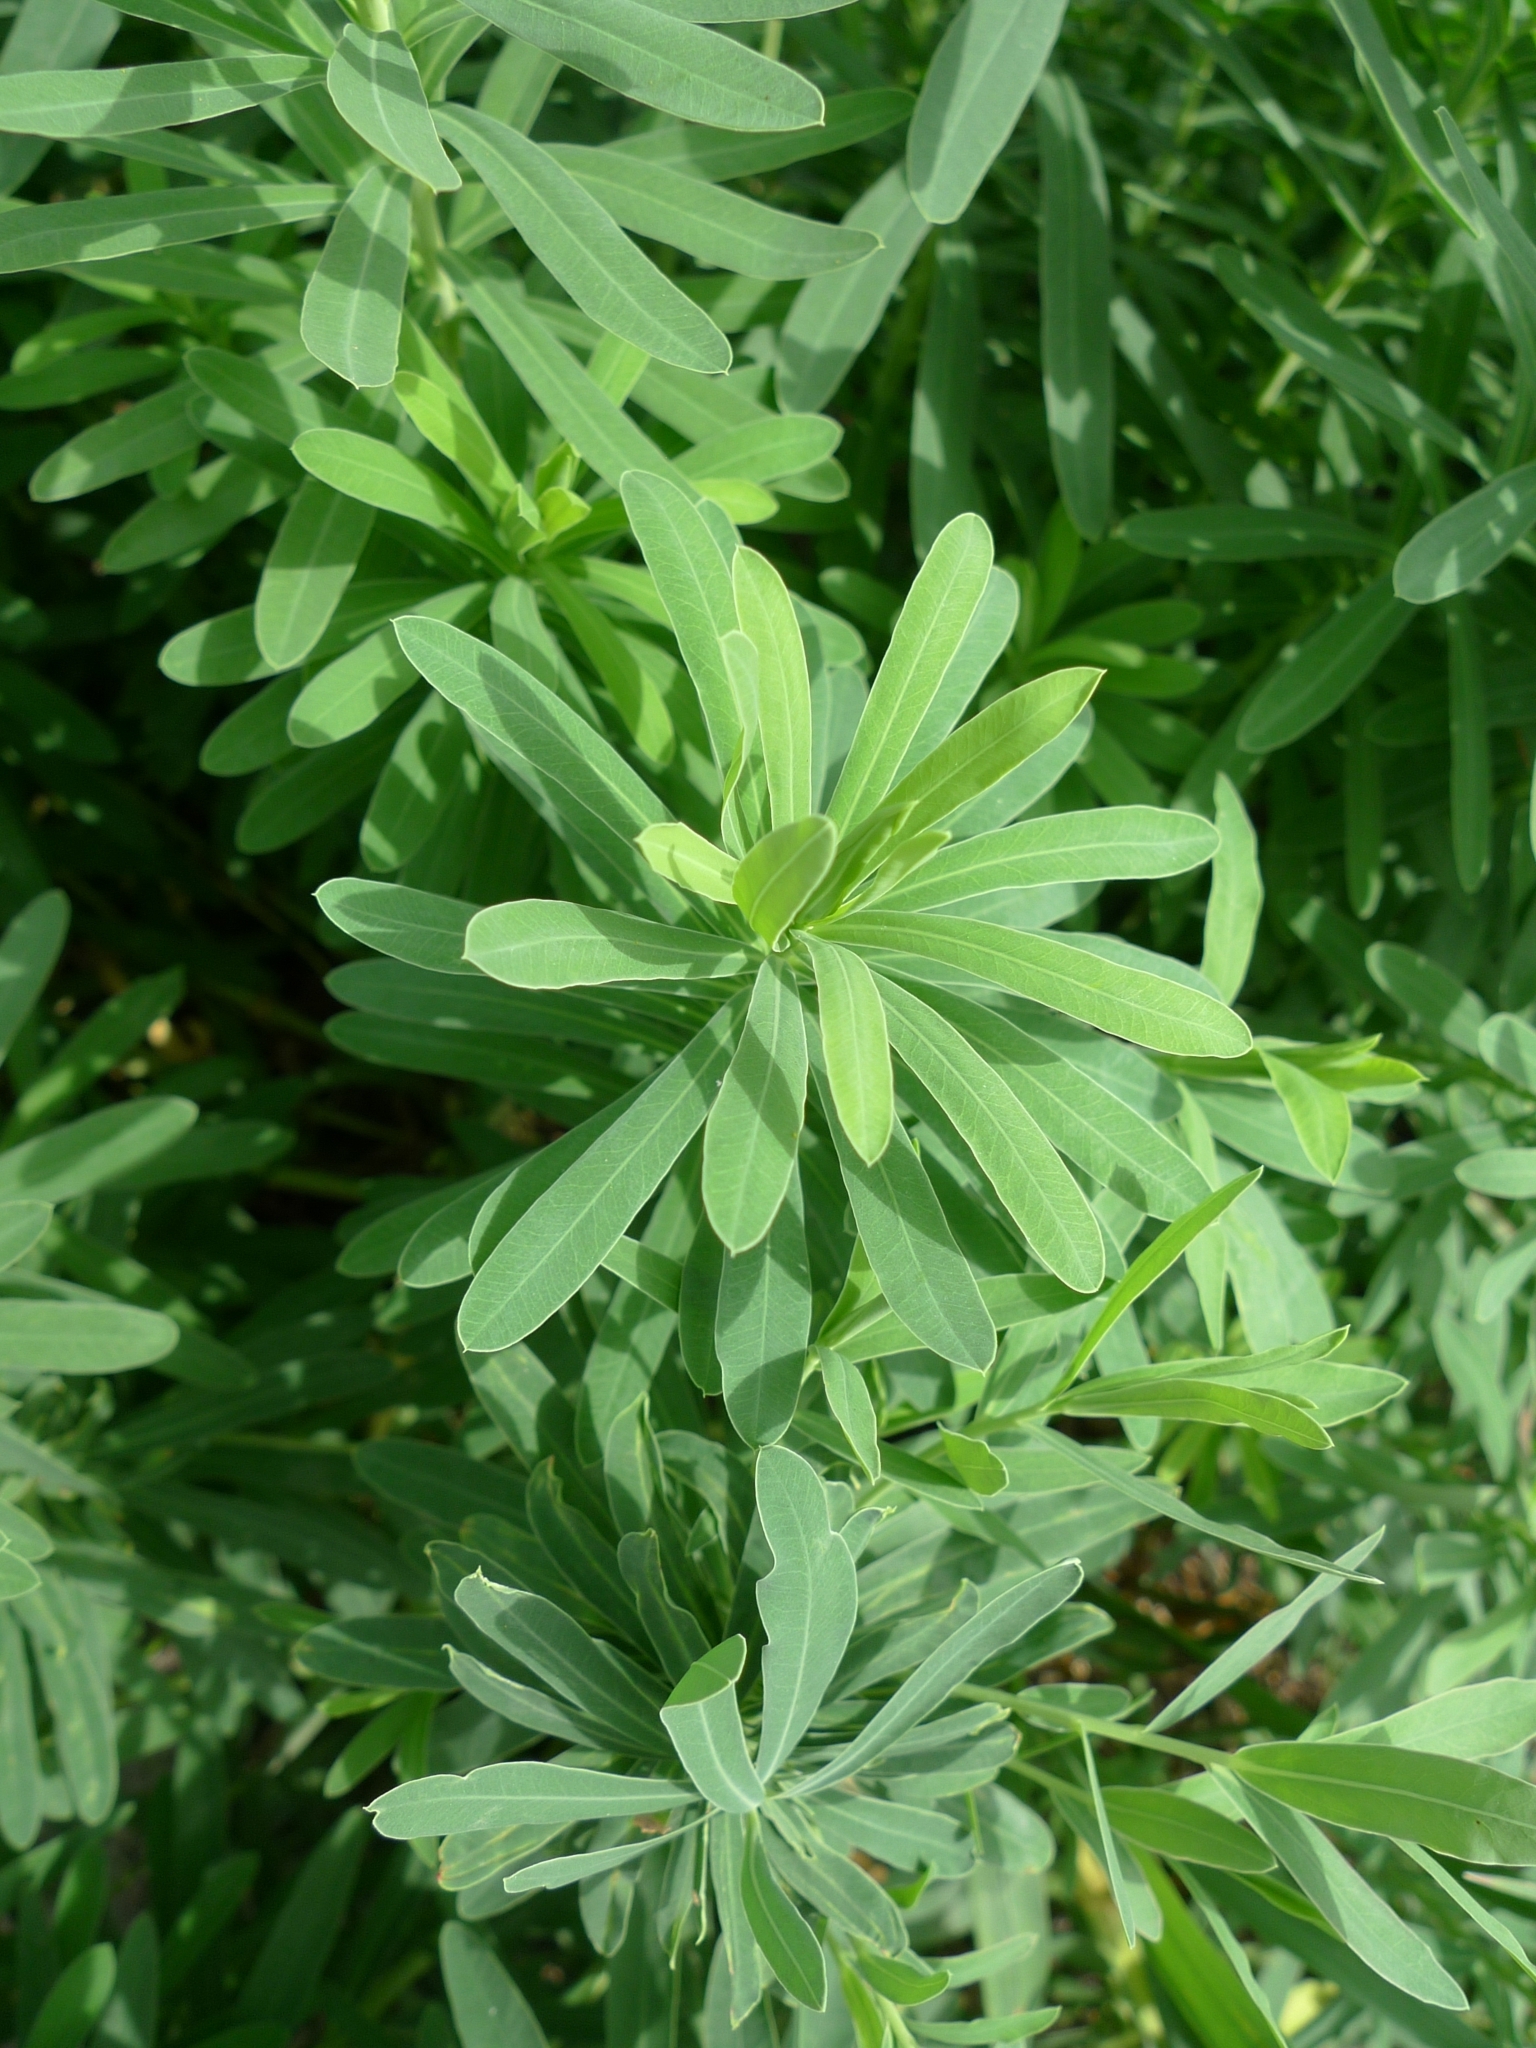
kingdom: Plantae
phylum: Tracheophyta
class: Magnoliopsida
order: Malpighiales
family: Euphorbiaceae
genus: Euphorbia
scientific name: Euphorbia esula
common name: Leafy spurge
